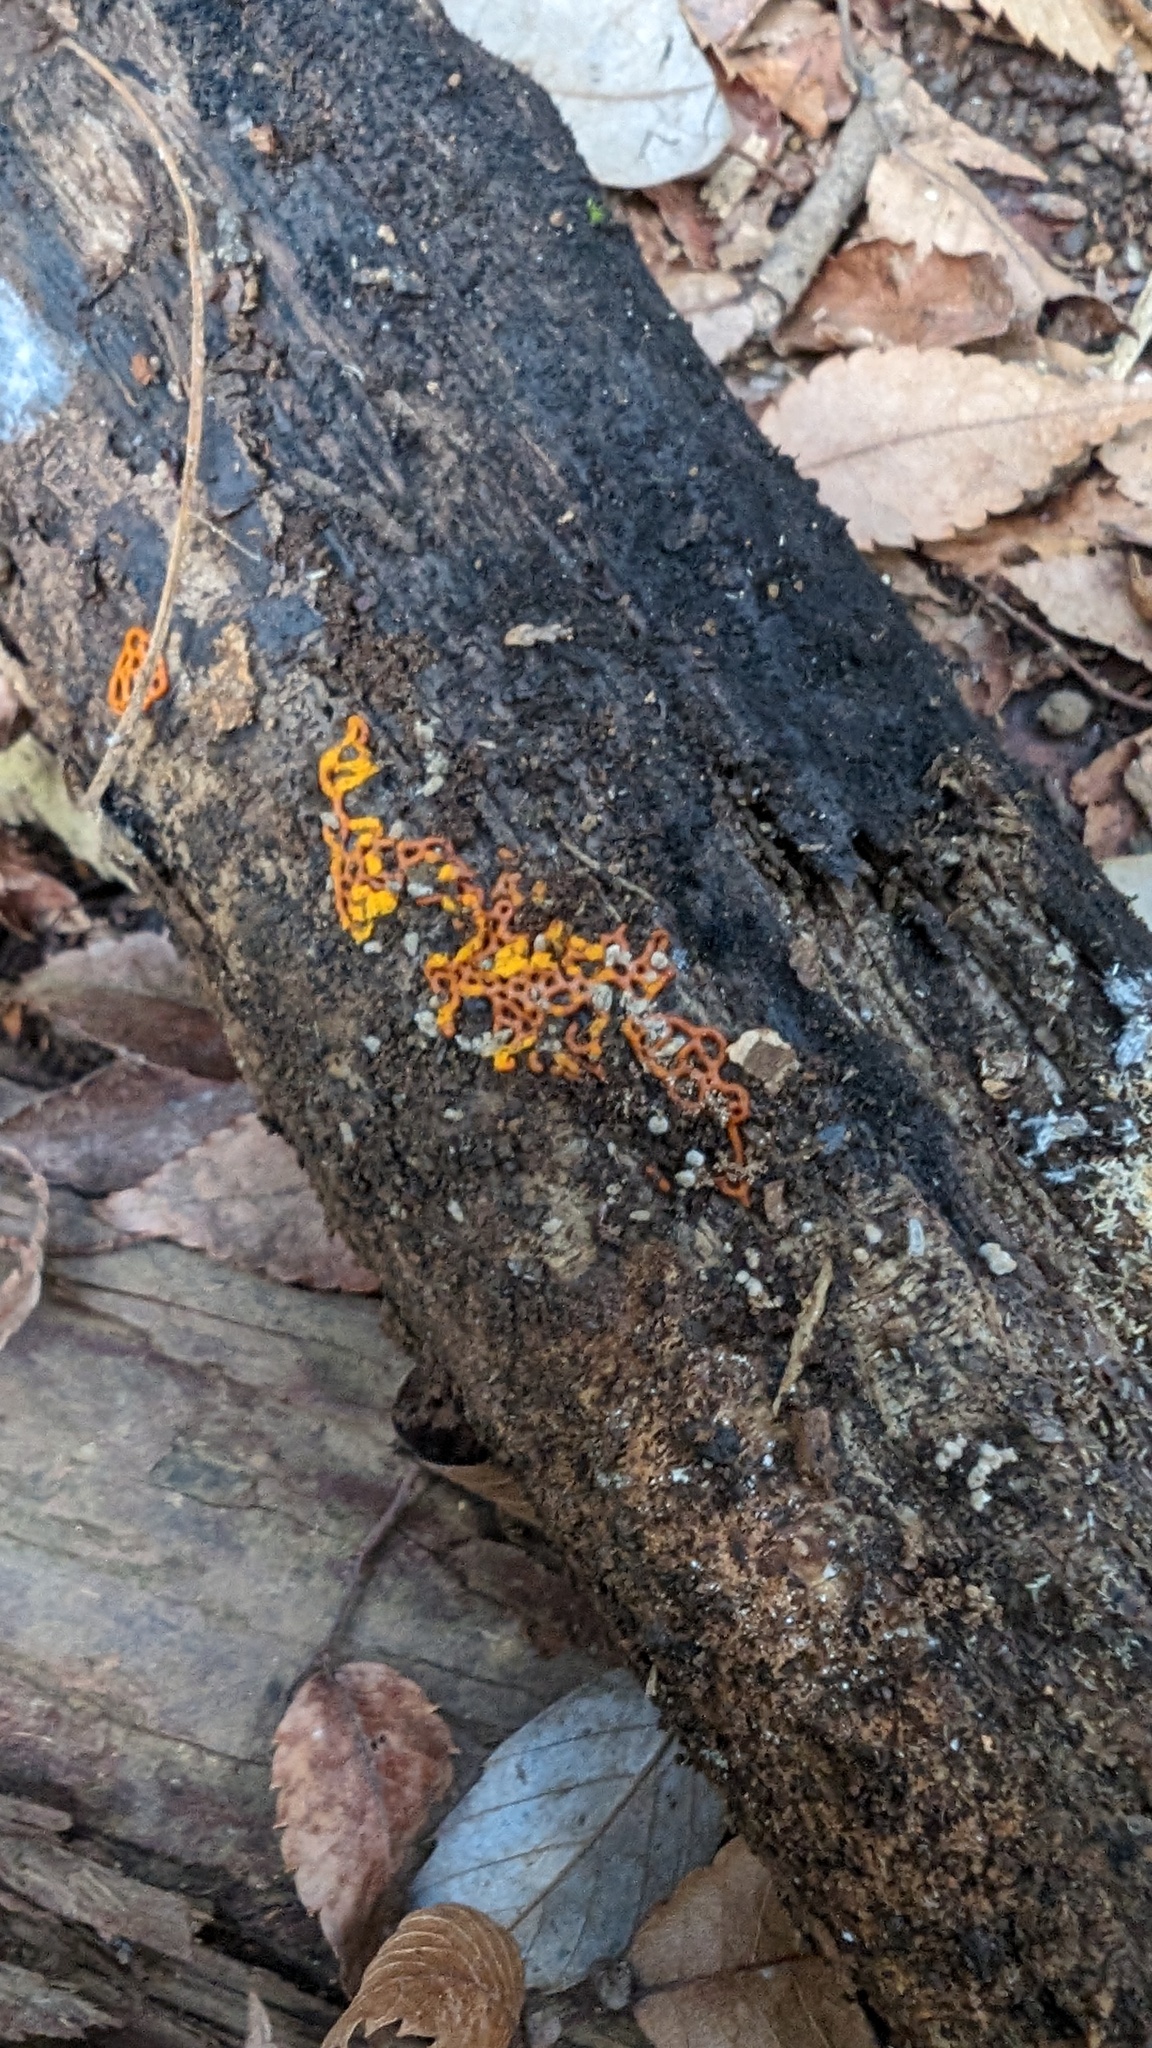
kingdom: Protozoa
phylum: Mycetozoa
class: Myxomycetes
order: Trichiales
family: Arcyriaceae
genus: Hemitrichia
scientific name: Hemitrichia serpula
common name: Pretzel slime mold
